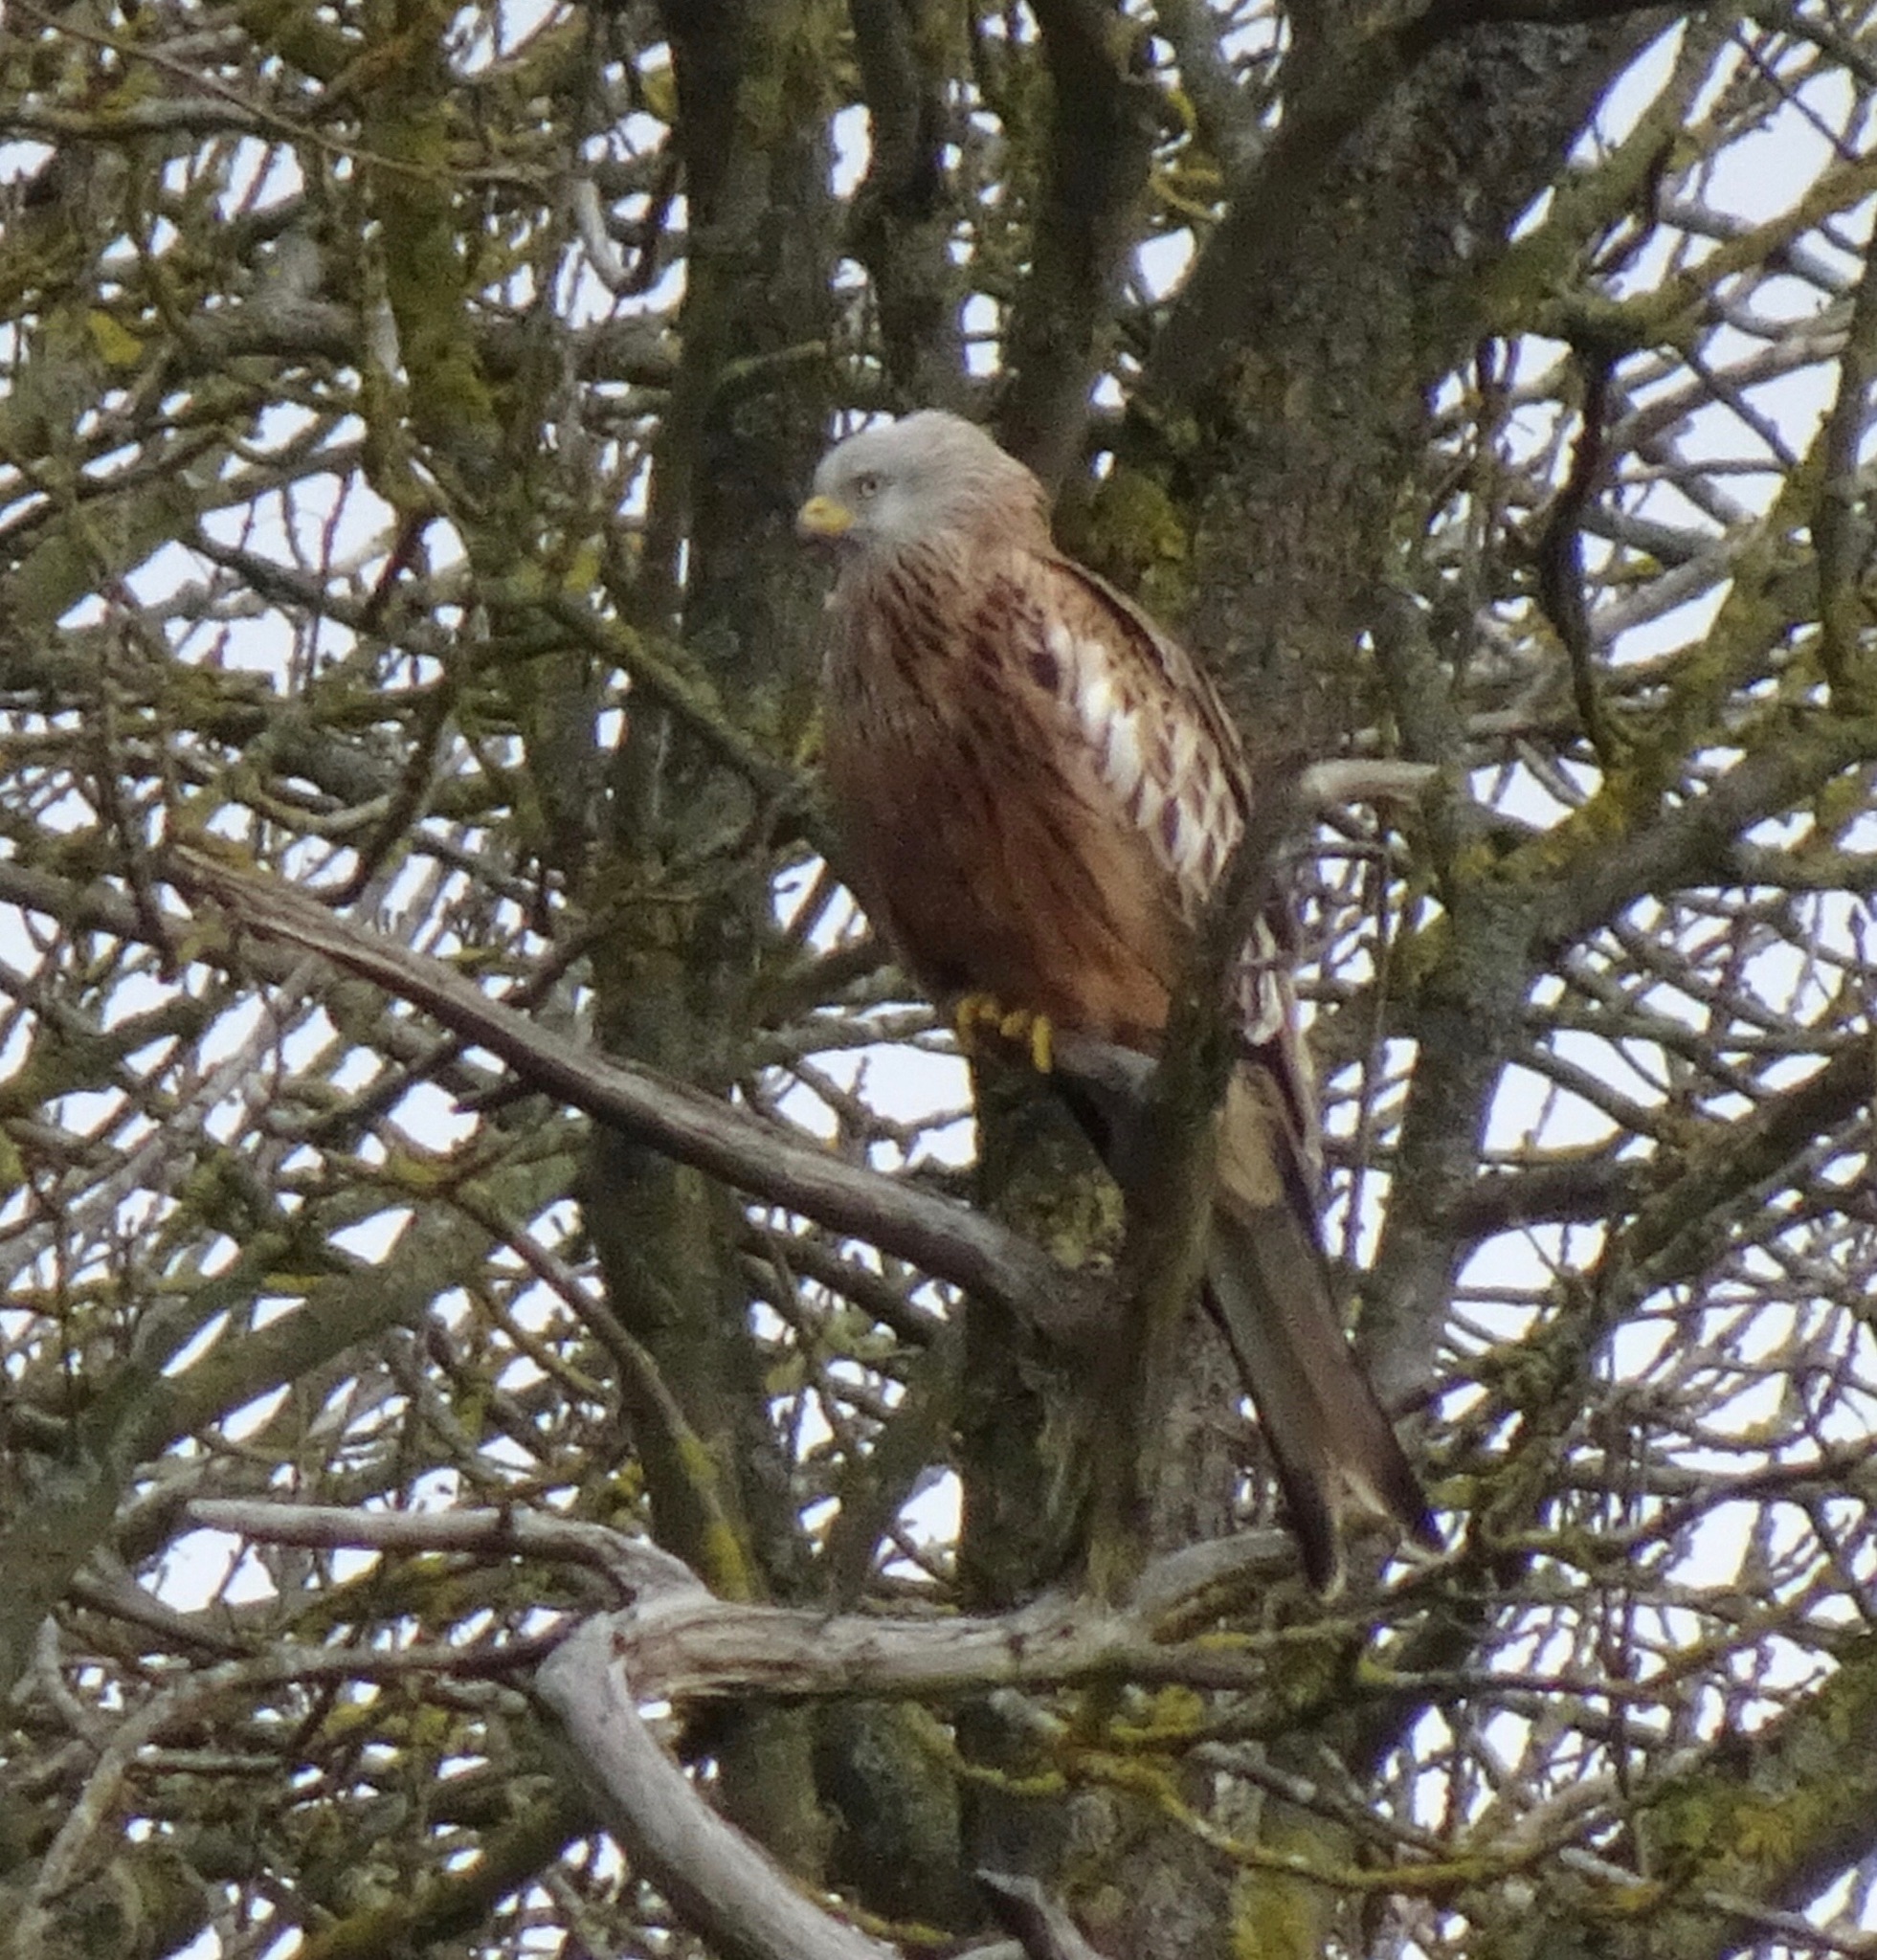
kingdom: Animalia
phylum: Chordata
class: Aves
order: Accipitriformes
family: Accipitridae
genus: Milvus
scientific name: Milvus milvus
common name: Red kite
